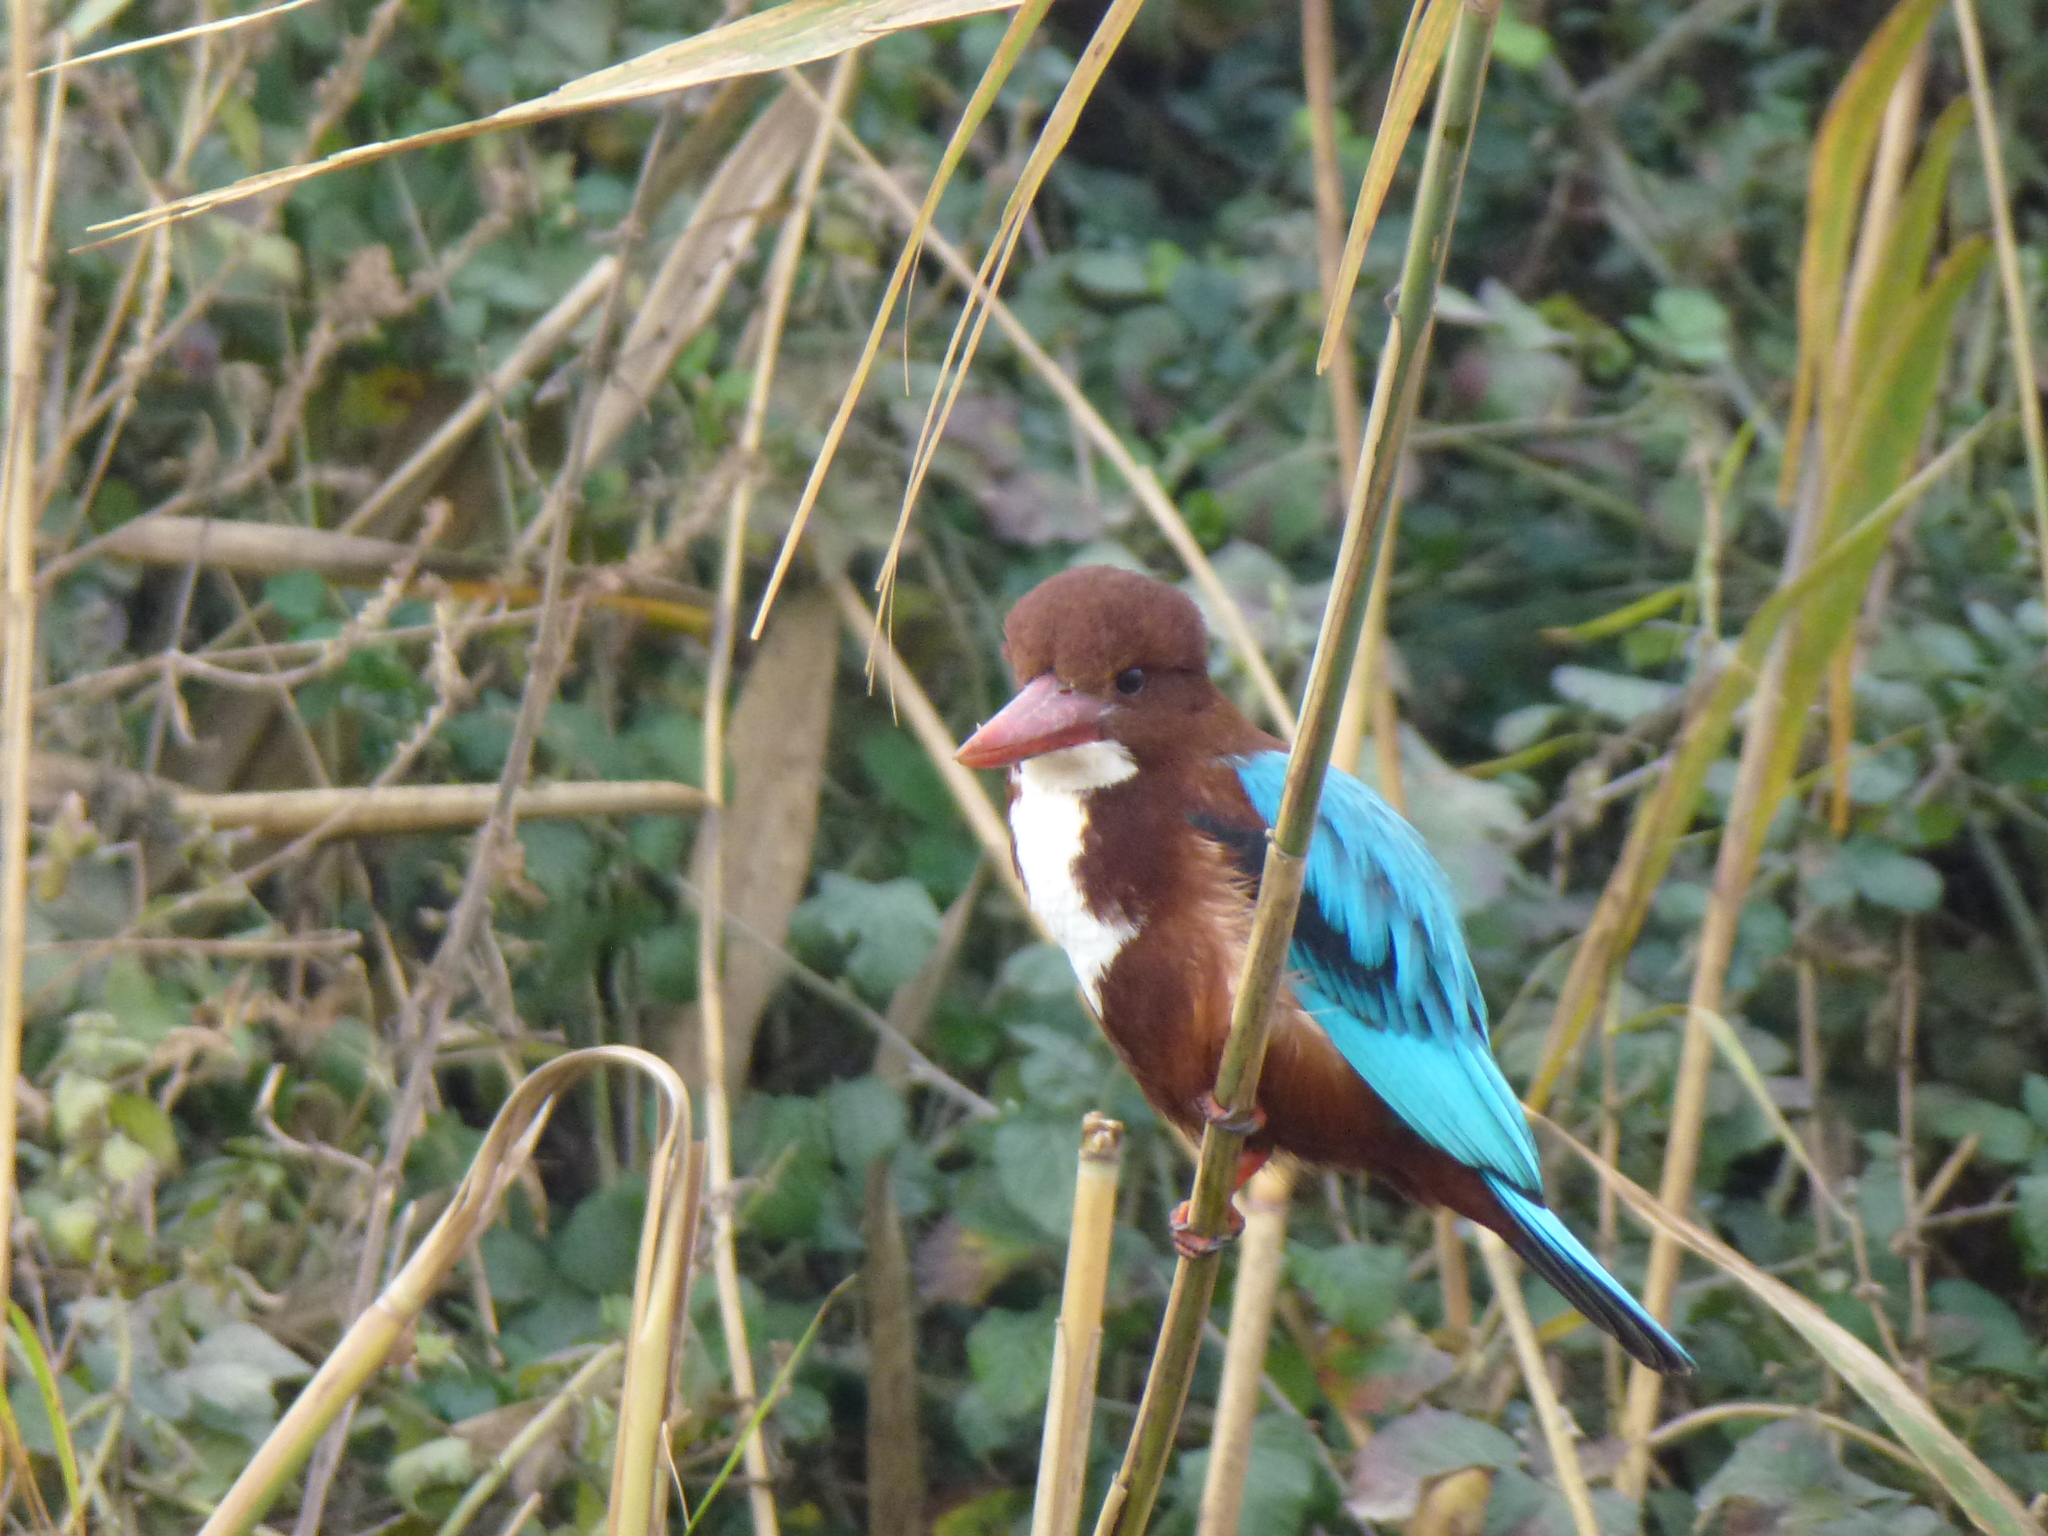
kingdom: Animalia
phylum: Chordata
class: Aves
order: Coraciiformes
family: Alcedinidae
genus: Halcyon
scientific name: Halcyon smyrnensis
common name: White-throated kingfisher
